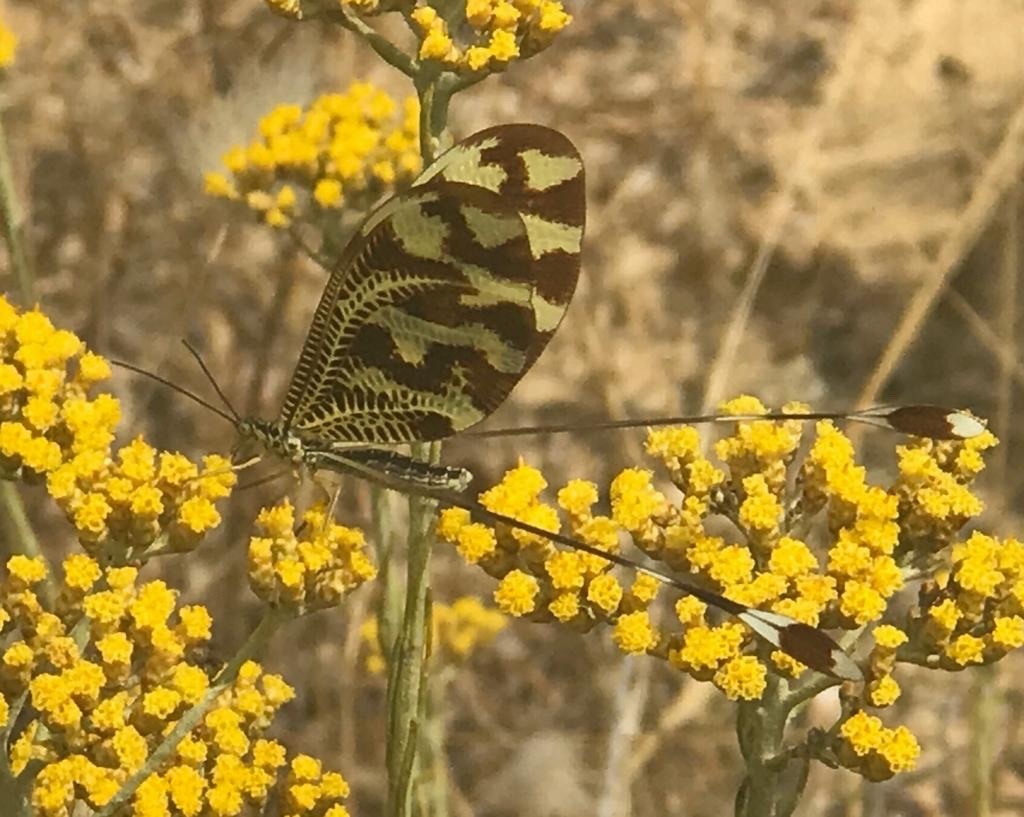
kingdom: Animalia
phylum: Arthropoda
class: Insecta
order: Neuroptera
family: Nemopteridae
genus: Nemoptera
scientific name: Nemoptera bipennis
